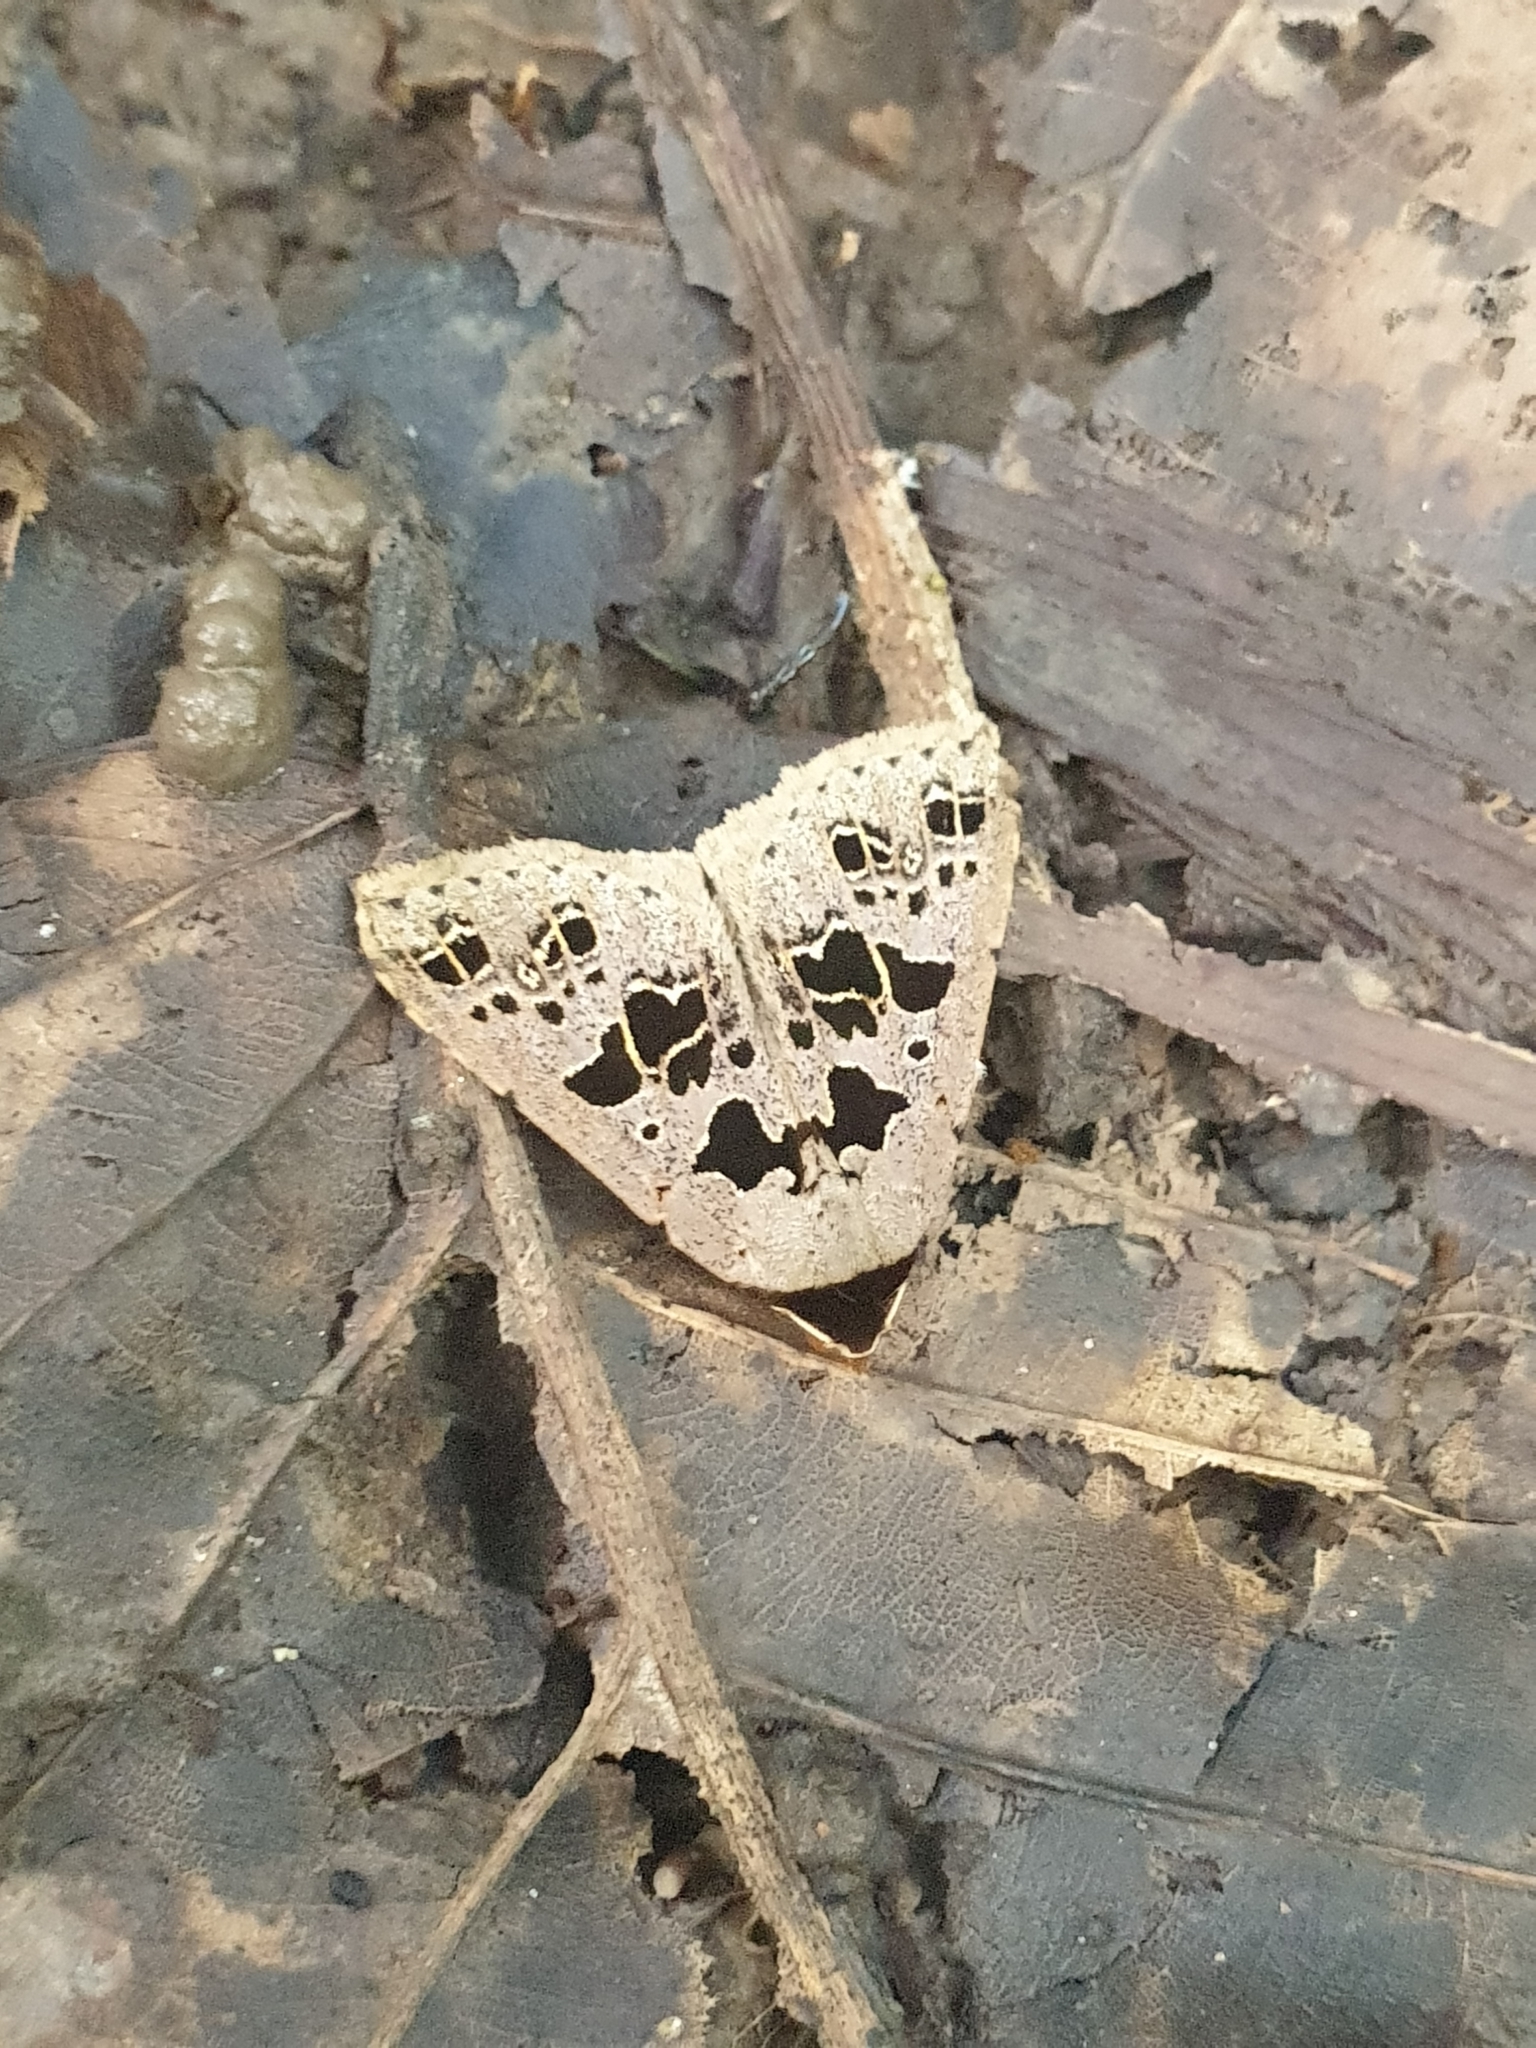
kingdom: Animalia
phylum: Arthropoda
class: Insecta
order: Lepidoptera
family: Erebidae
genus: Anoba
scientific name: Anoba pectinata
